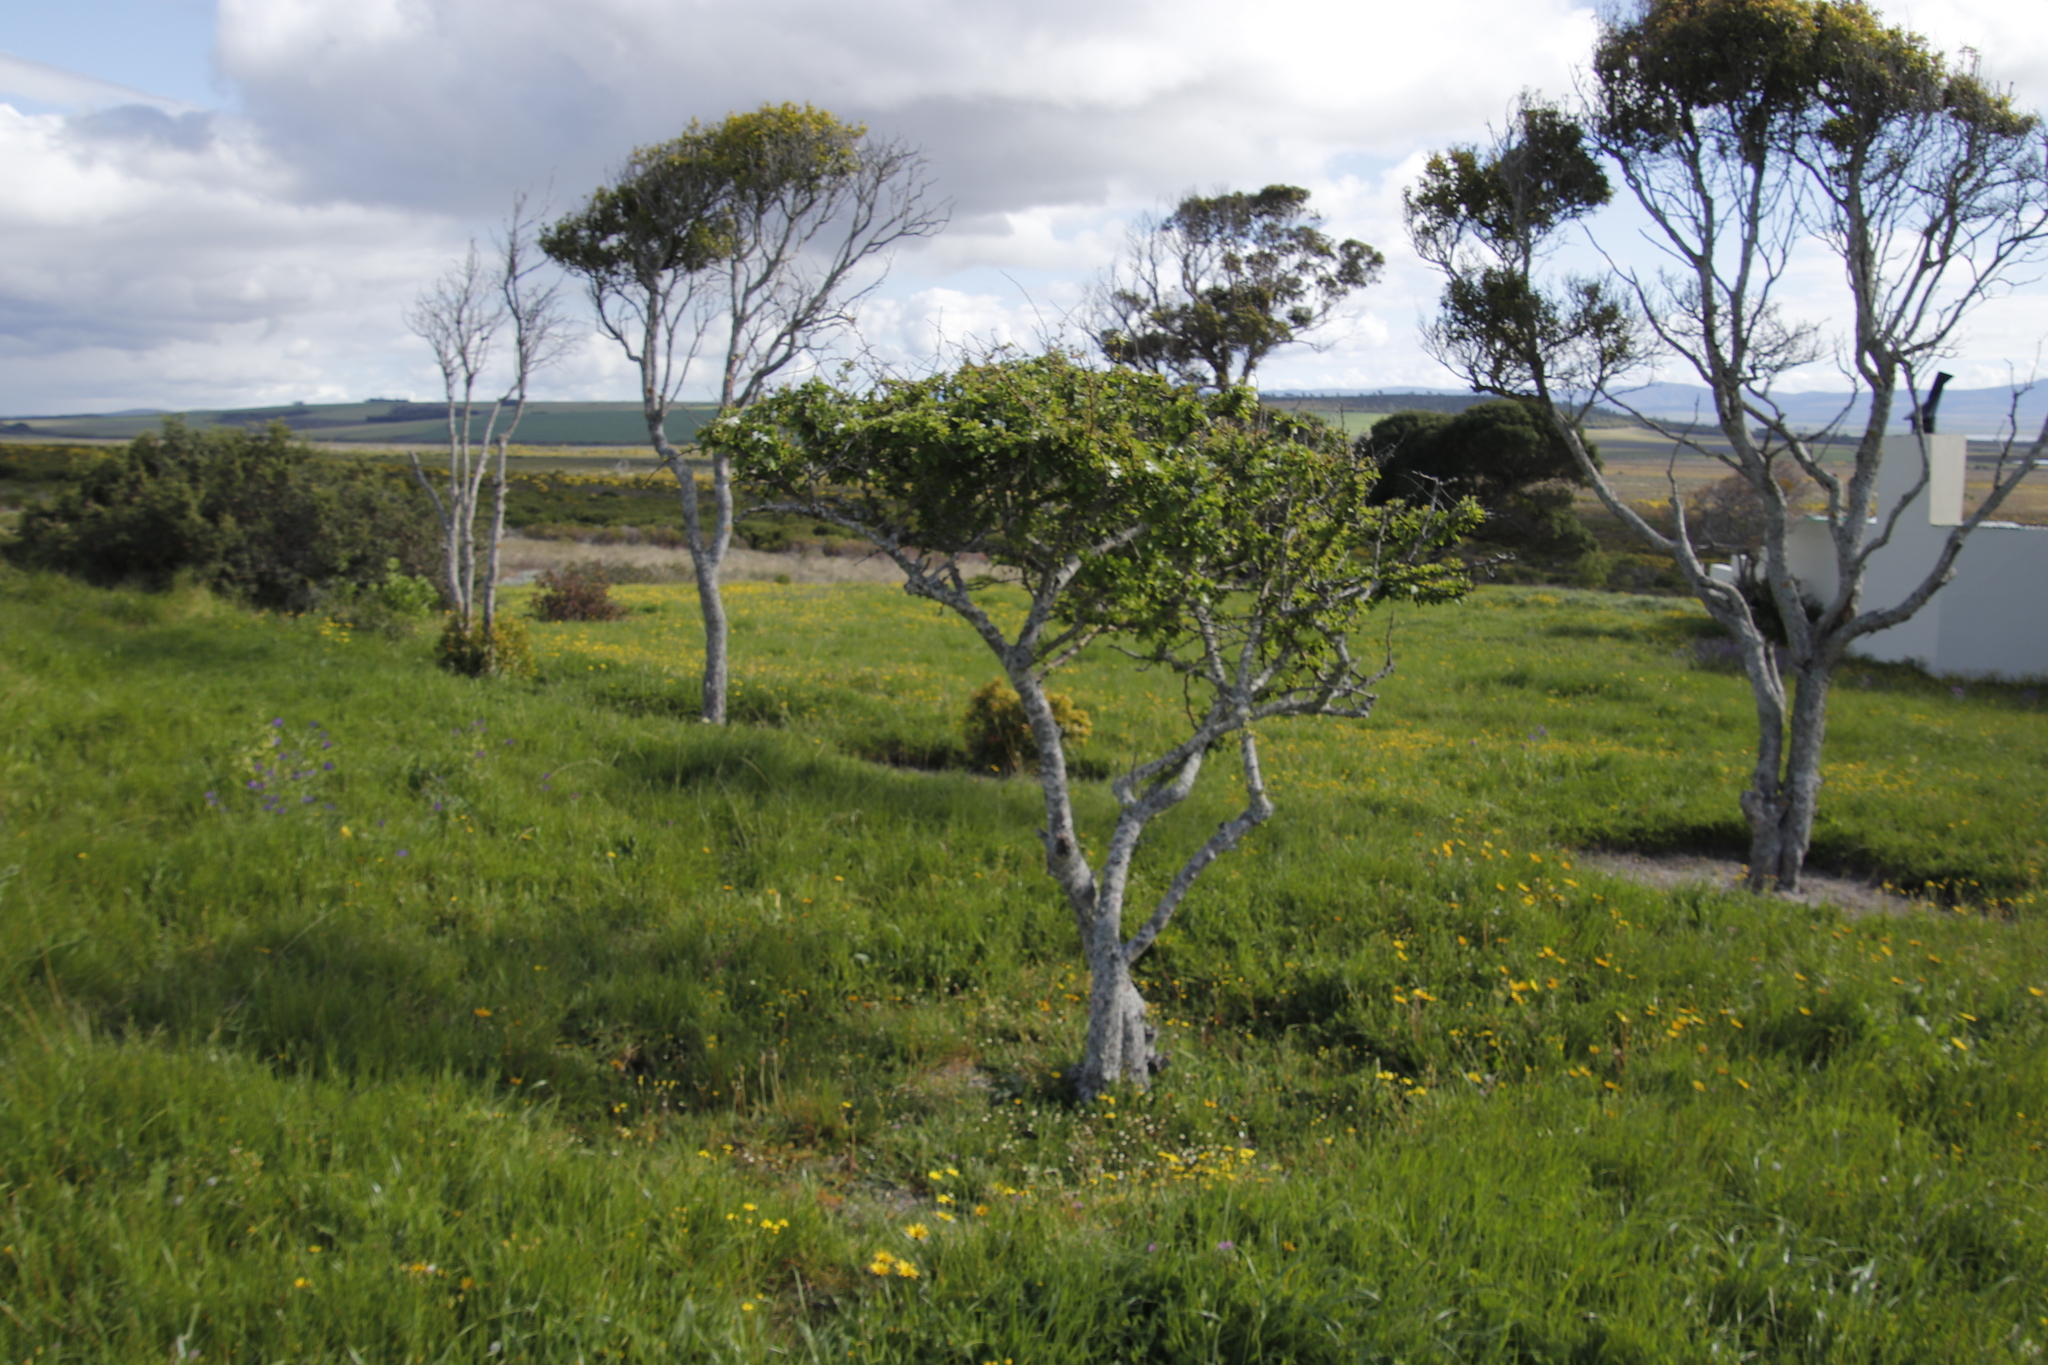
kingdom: Plantae
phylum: Tracheophyta
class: Magnoliopsida
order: Gentianales
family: Rubiaceae
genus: Canthium
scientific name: Canthium inerme
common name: Unarmed turkey-berry
